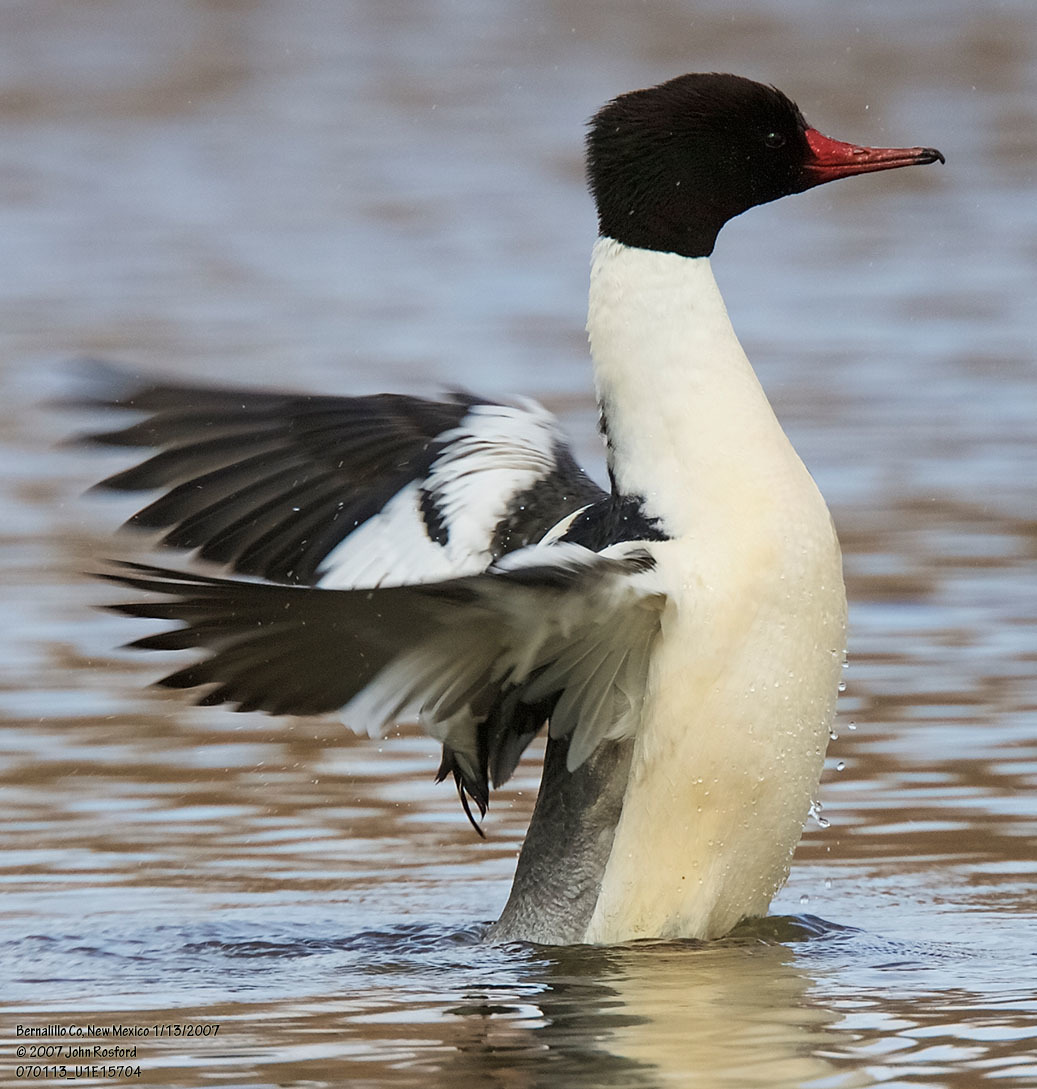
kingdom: Animalia
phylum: Chordata
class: Aves
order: Anseriformes
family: Anatidae
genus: Mergus
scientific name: Mergus merganser
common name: Common merganser
